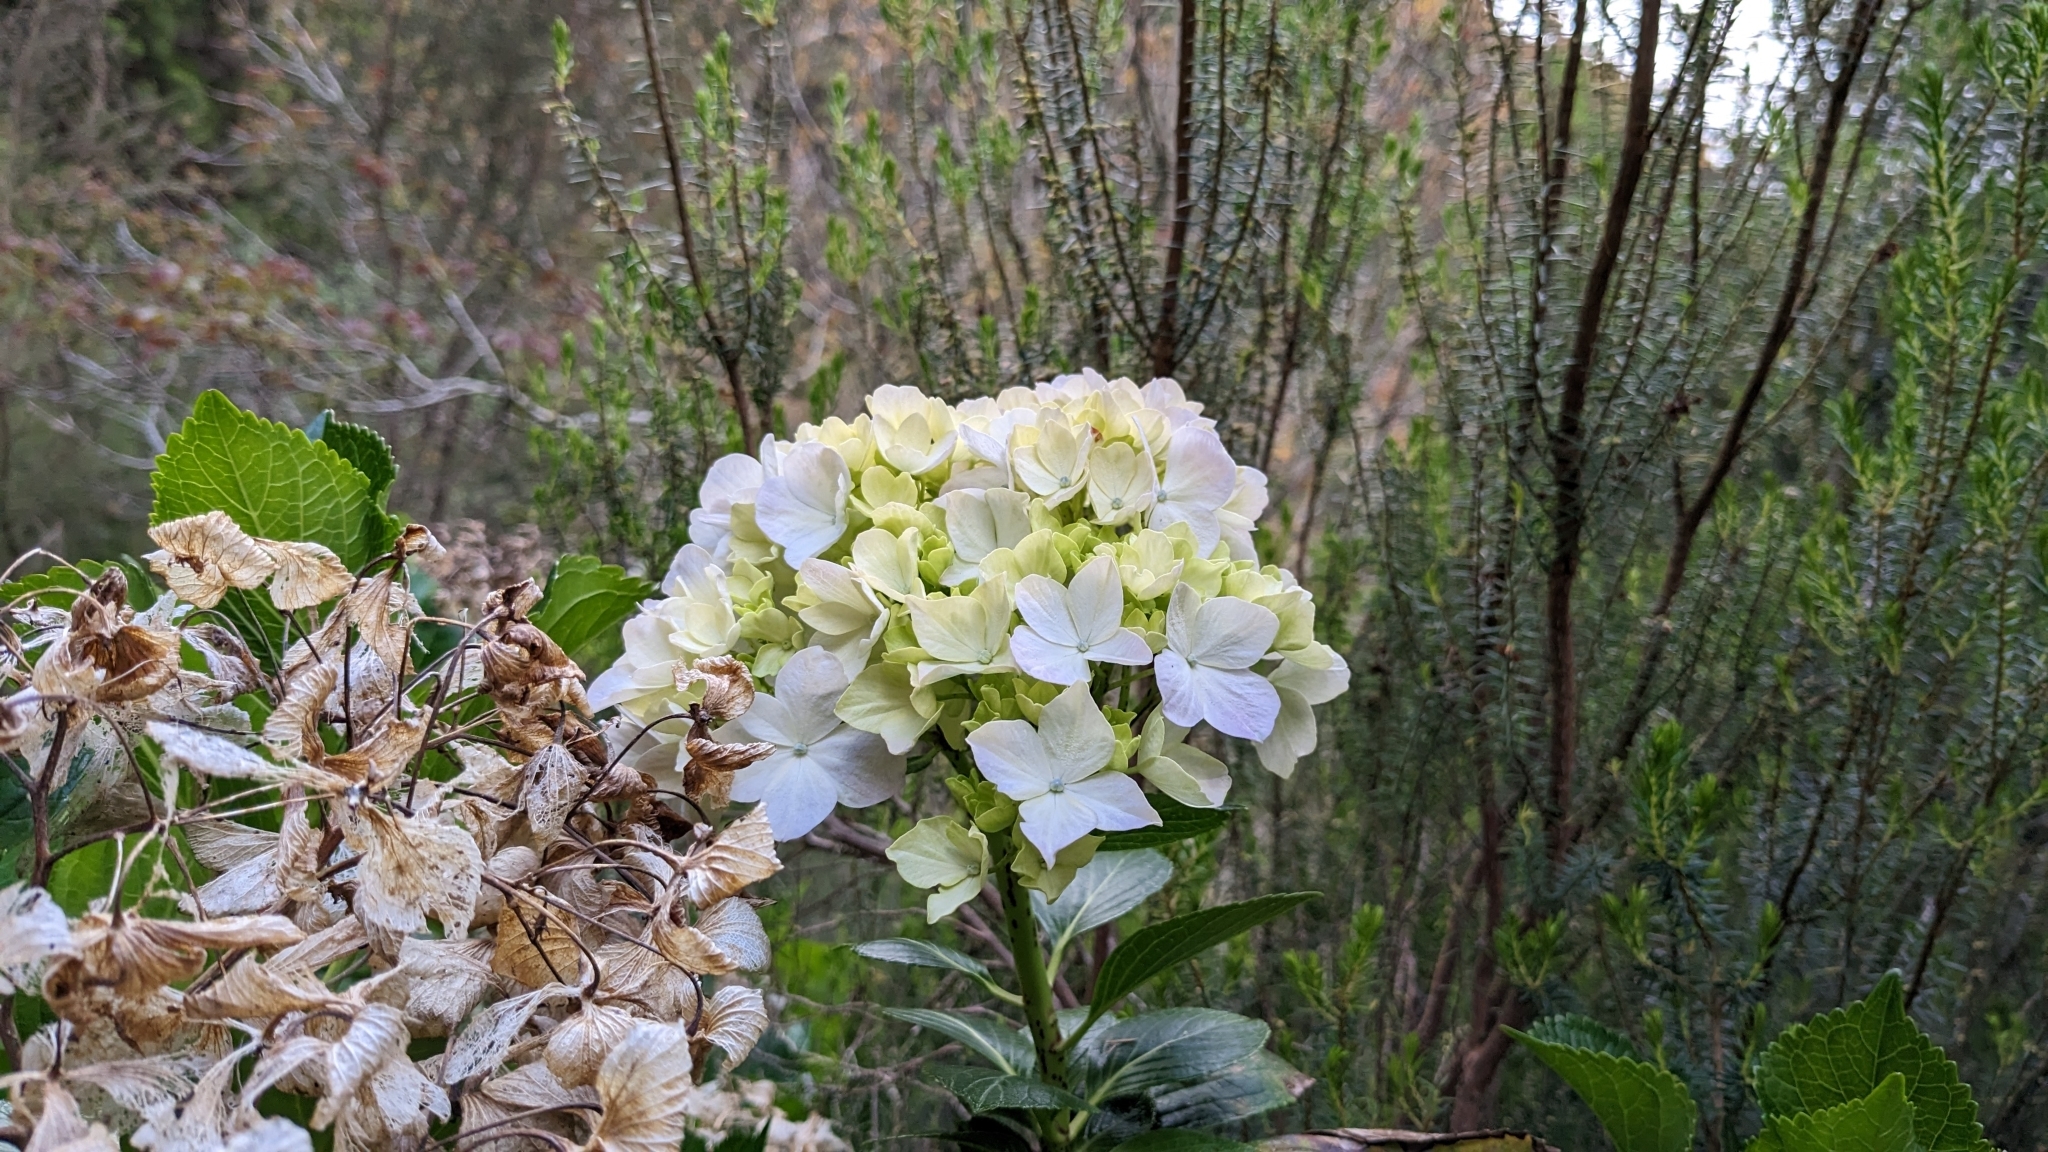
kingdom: Plantae
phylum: Tracheophyta
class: Magnoliopsida
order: Cornales
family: Hydrangeaceae
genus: Hydrangea
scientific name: Hydrangea macrophylla
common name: Hydrangea
